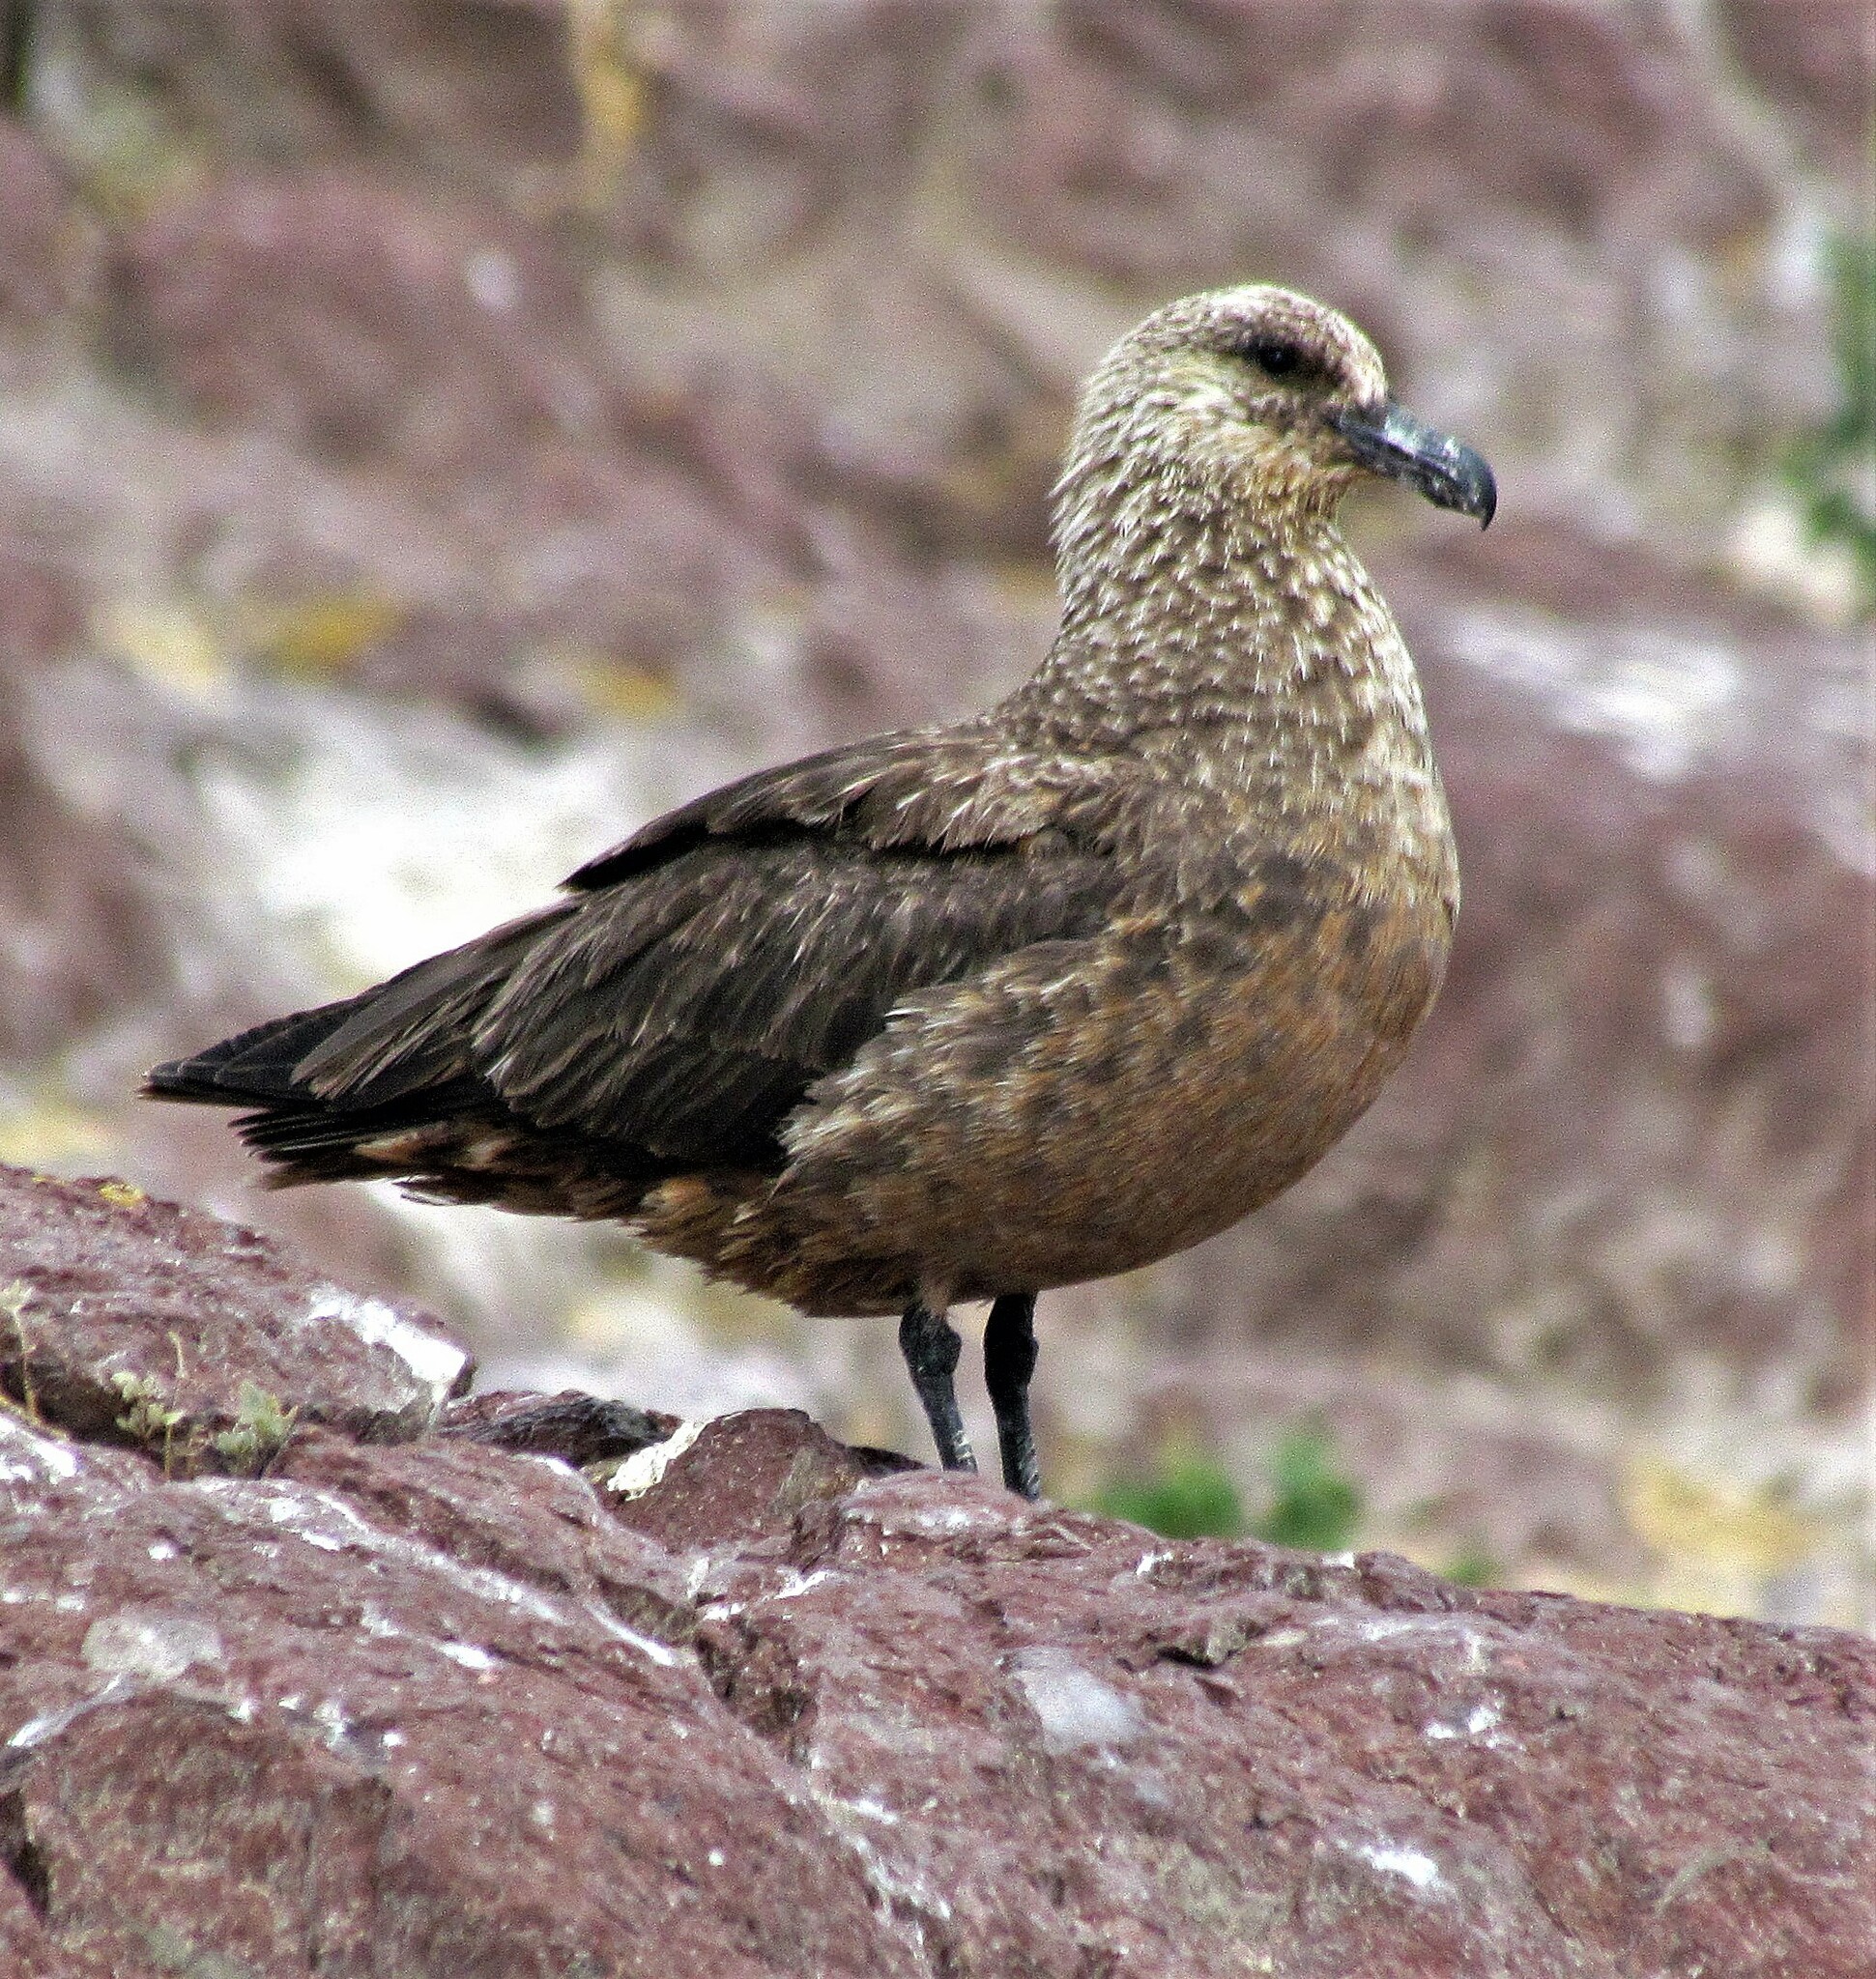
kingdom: Animalia
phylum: Chordata
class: Aves
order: Charadriiformes
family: Stercorariidae
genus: Stercorarius
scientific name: Stercorarius chilensis
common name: Chilean skua
